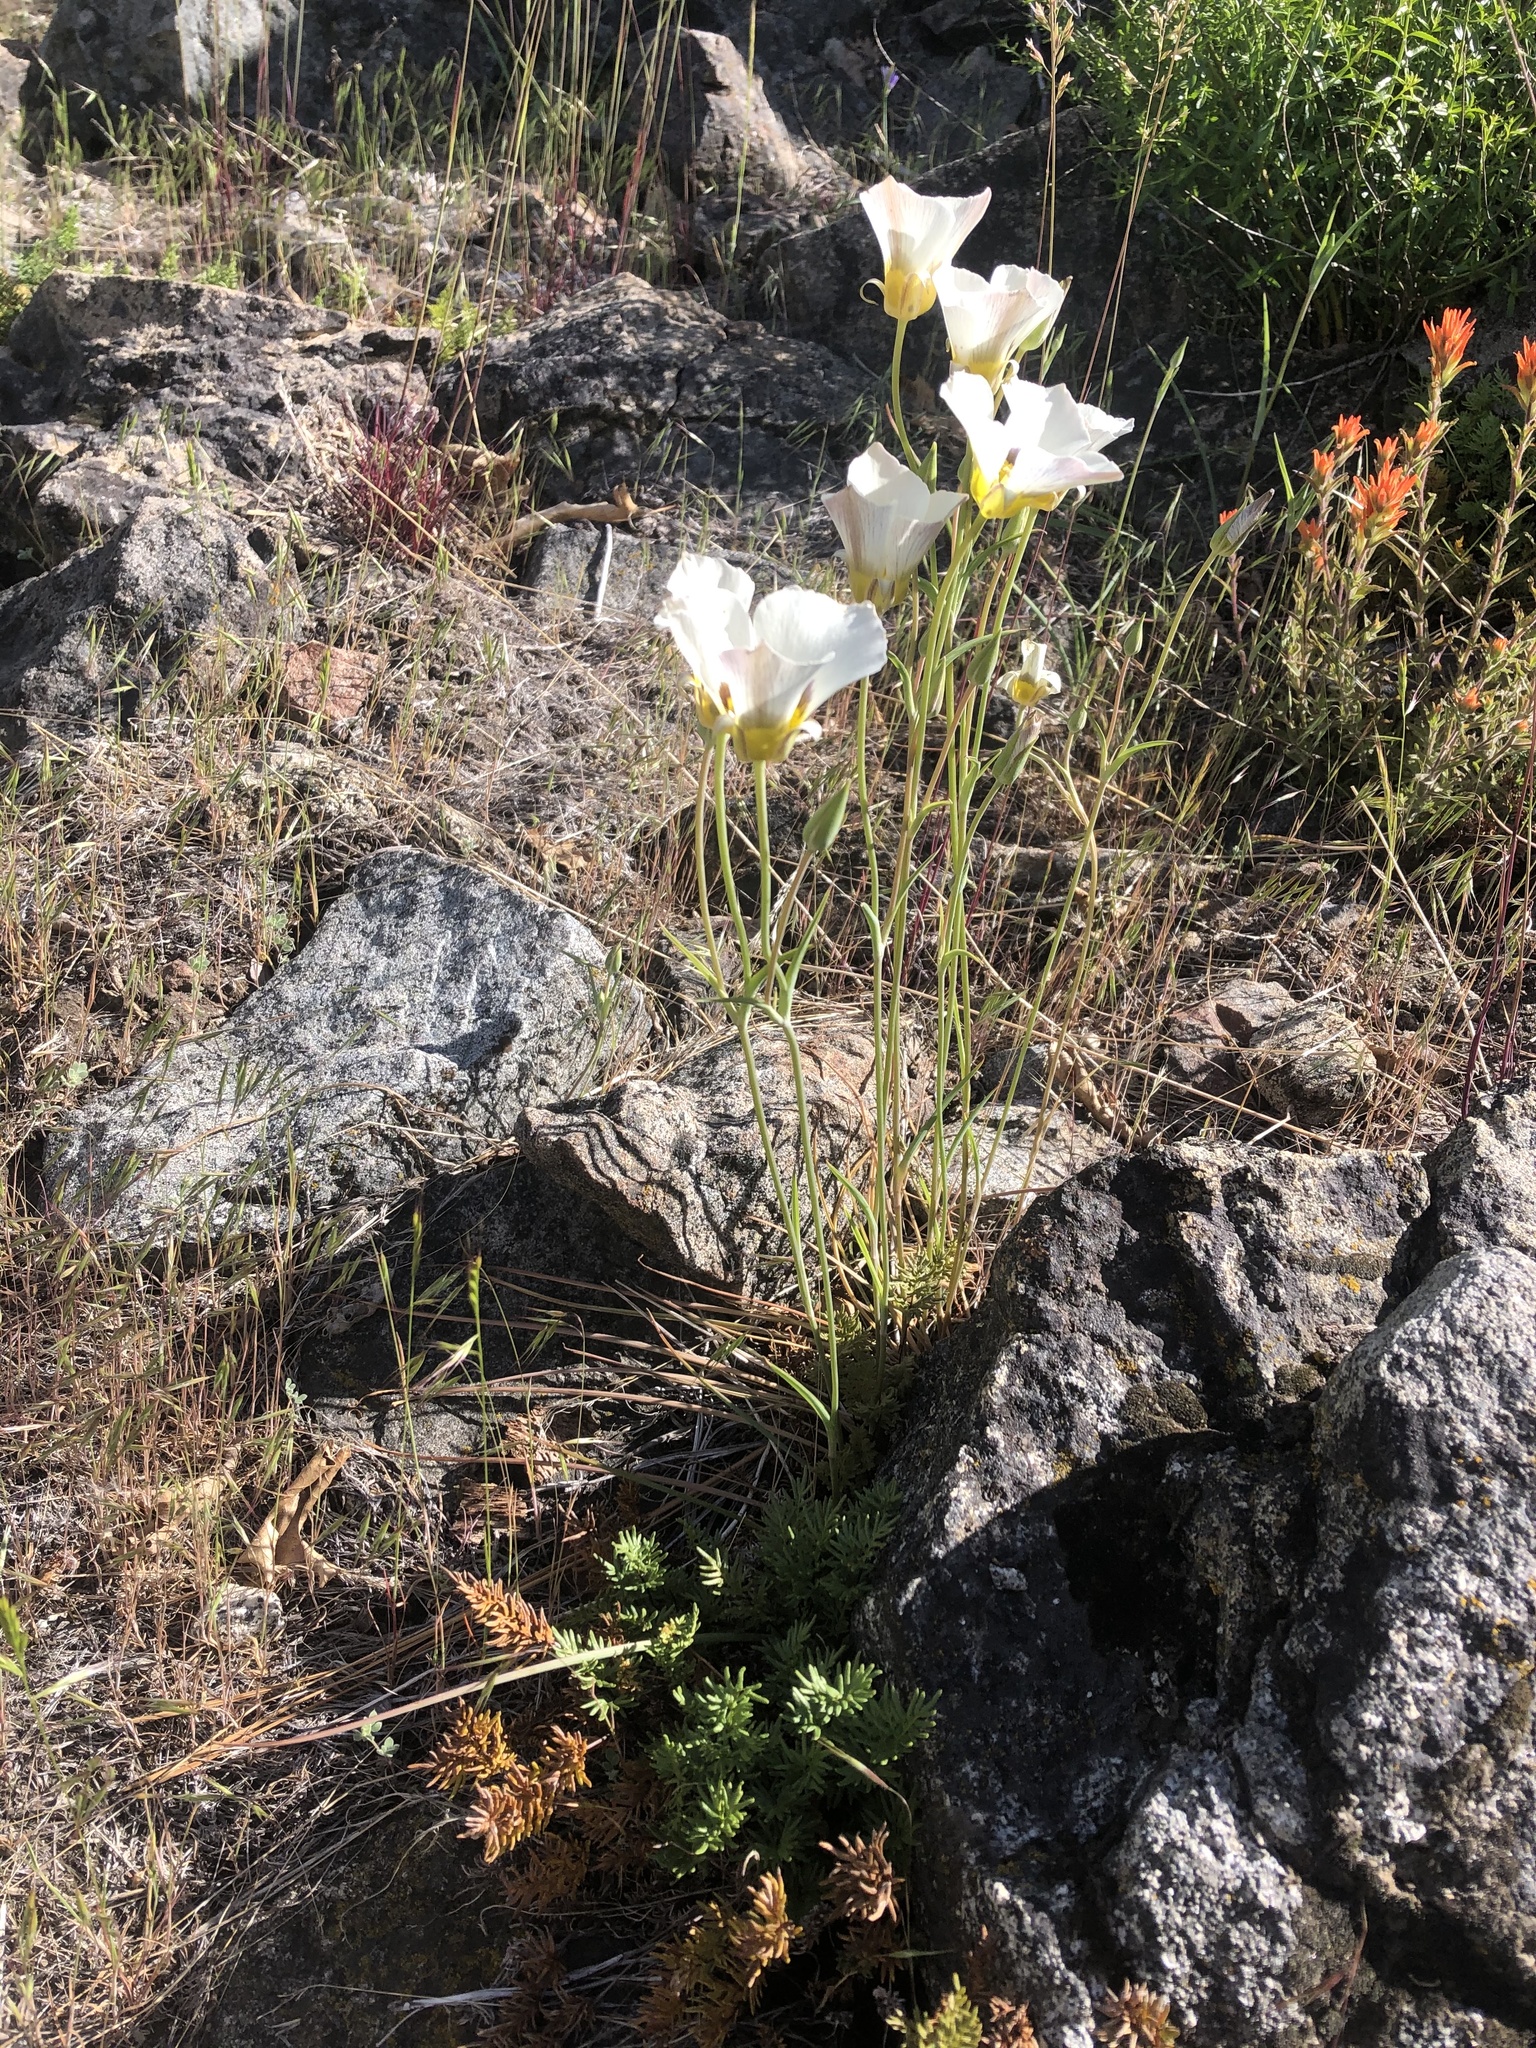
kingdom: Plantae
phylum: Tracheophyta
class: Liliopsida
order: Liliales
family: Liliaceae
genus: Calochortus
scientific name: Calochortus leichtlinii
